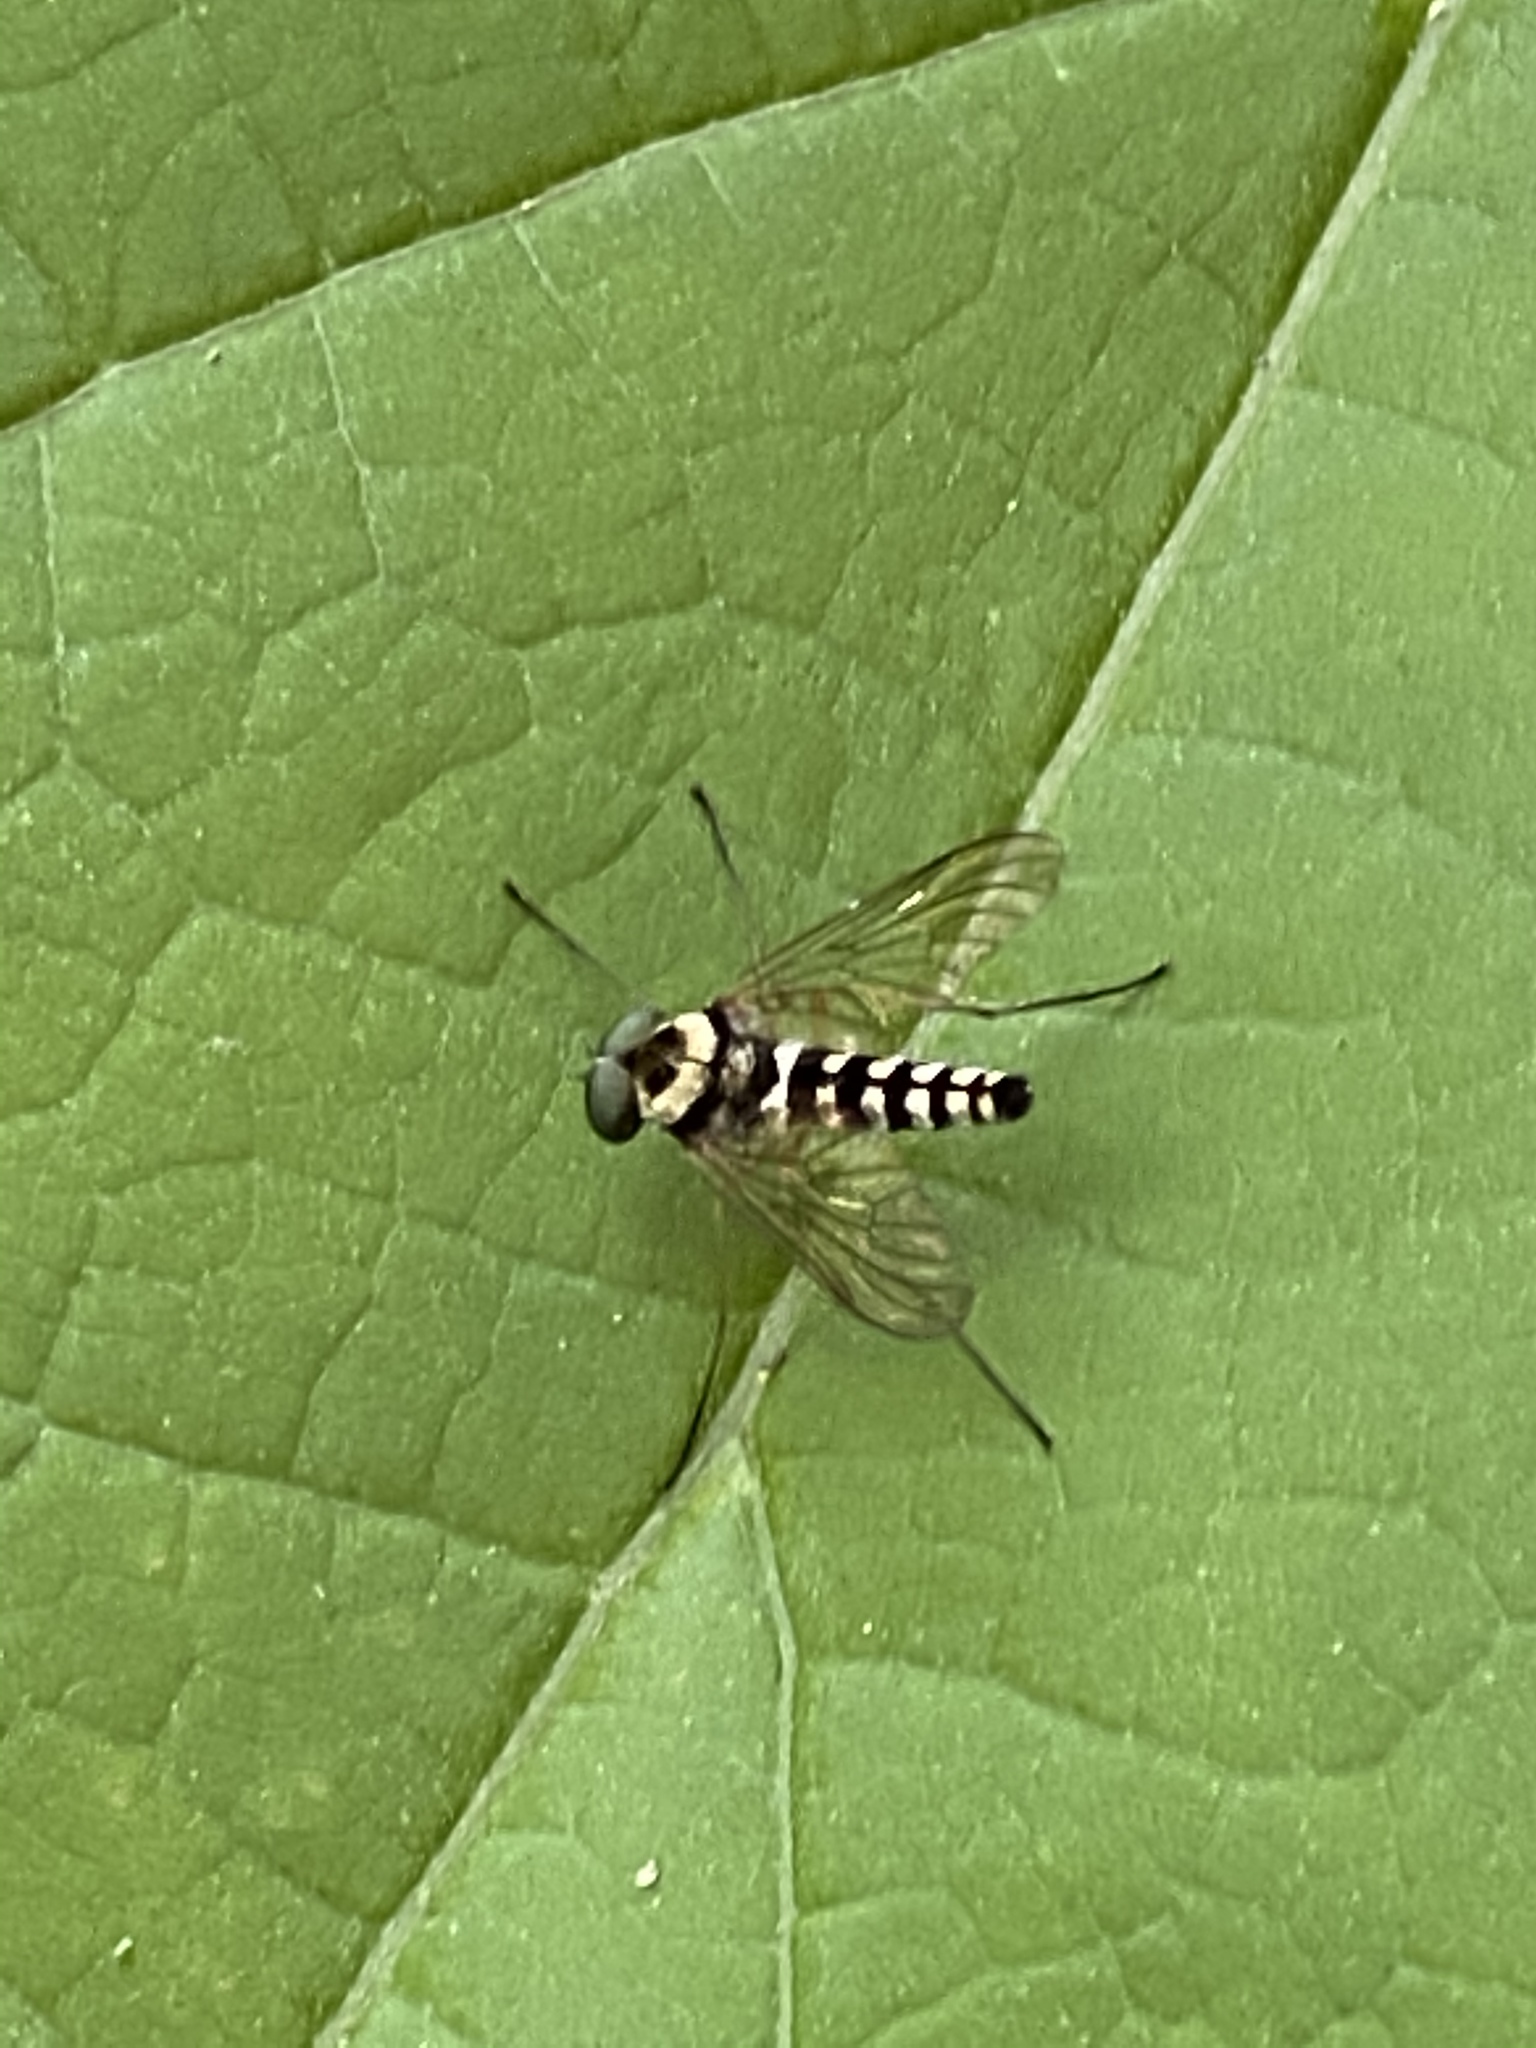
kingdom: Animalia
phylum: Arthropoda
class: Insecta
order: Diptera
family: Rhagionidae
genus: Chrysopilus
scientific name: Chrysopilus ornatus
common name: Ornate snipe fly
